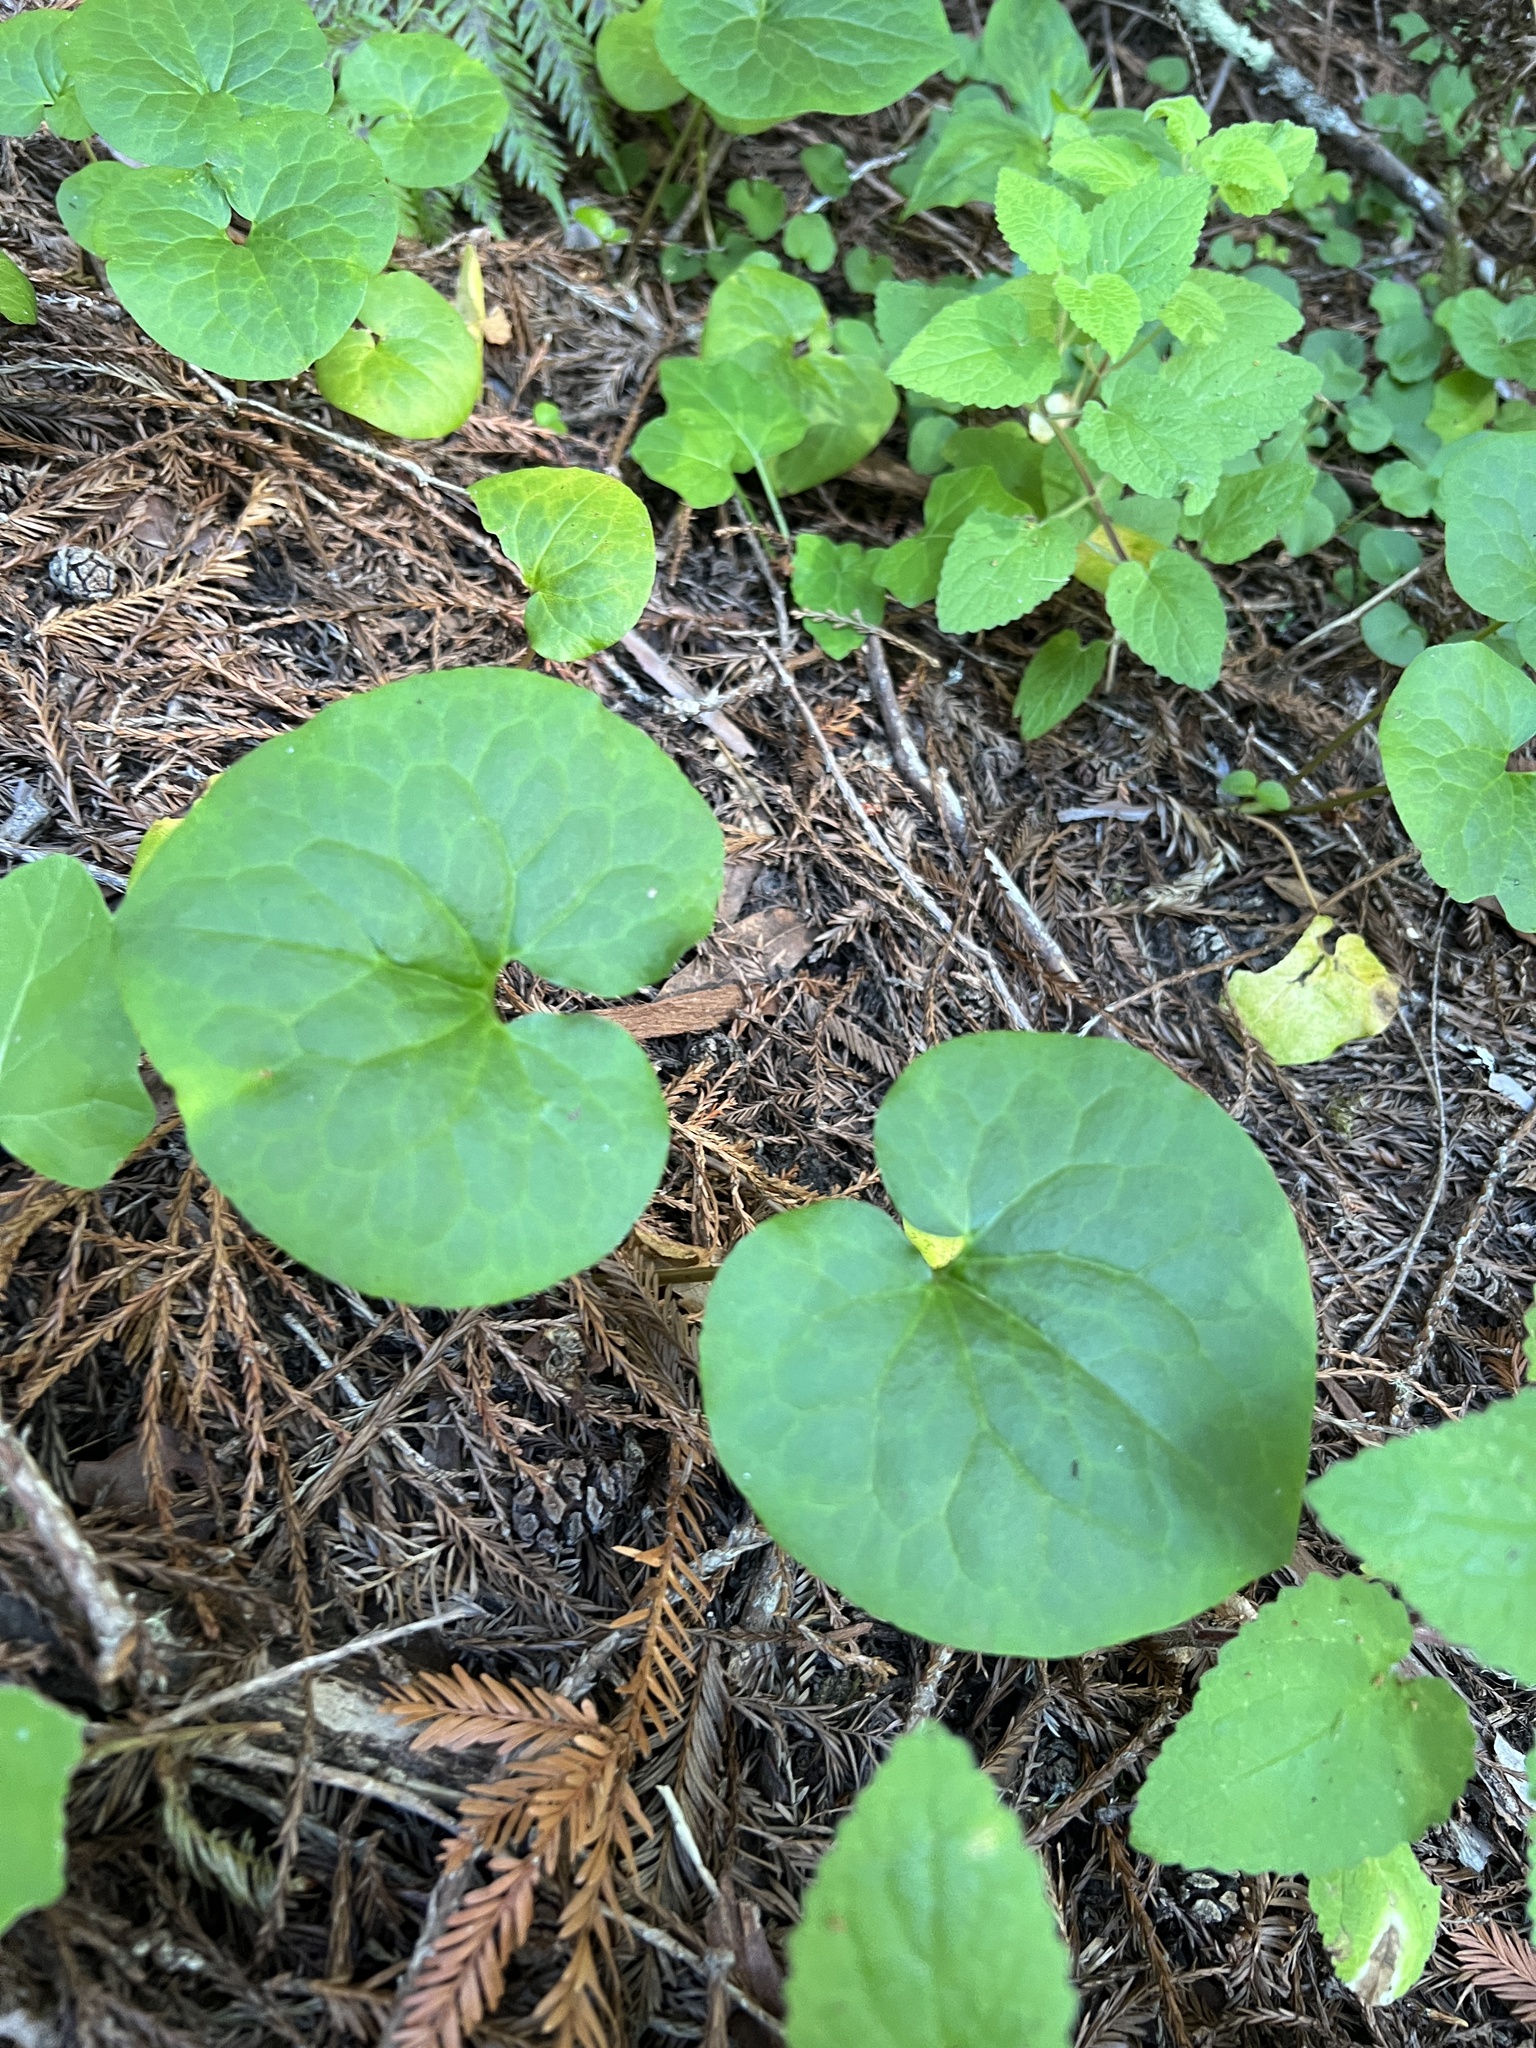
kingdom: Plantae
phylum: Tracheophyta
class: Magnoliopsida
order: Piperales
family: Aristolochiaceae
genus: Asarum
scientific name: Asarum caudatum
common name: Wild ginger
